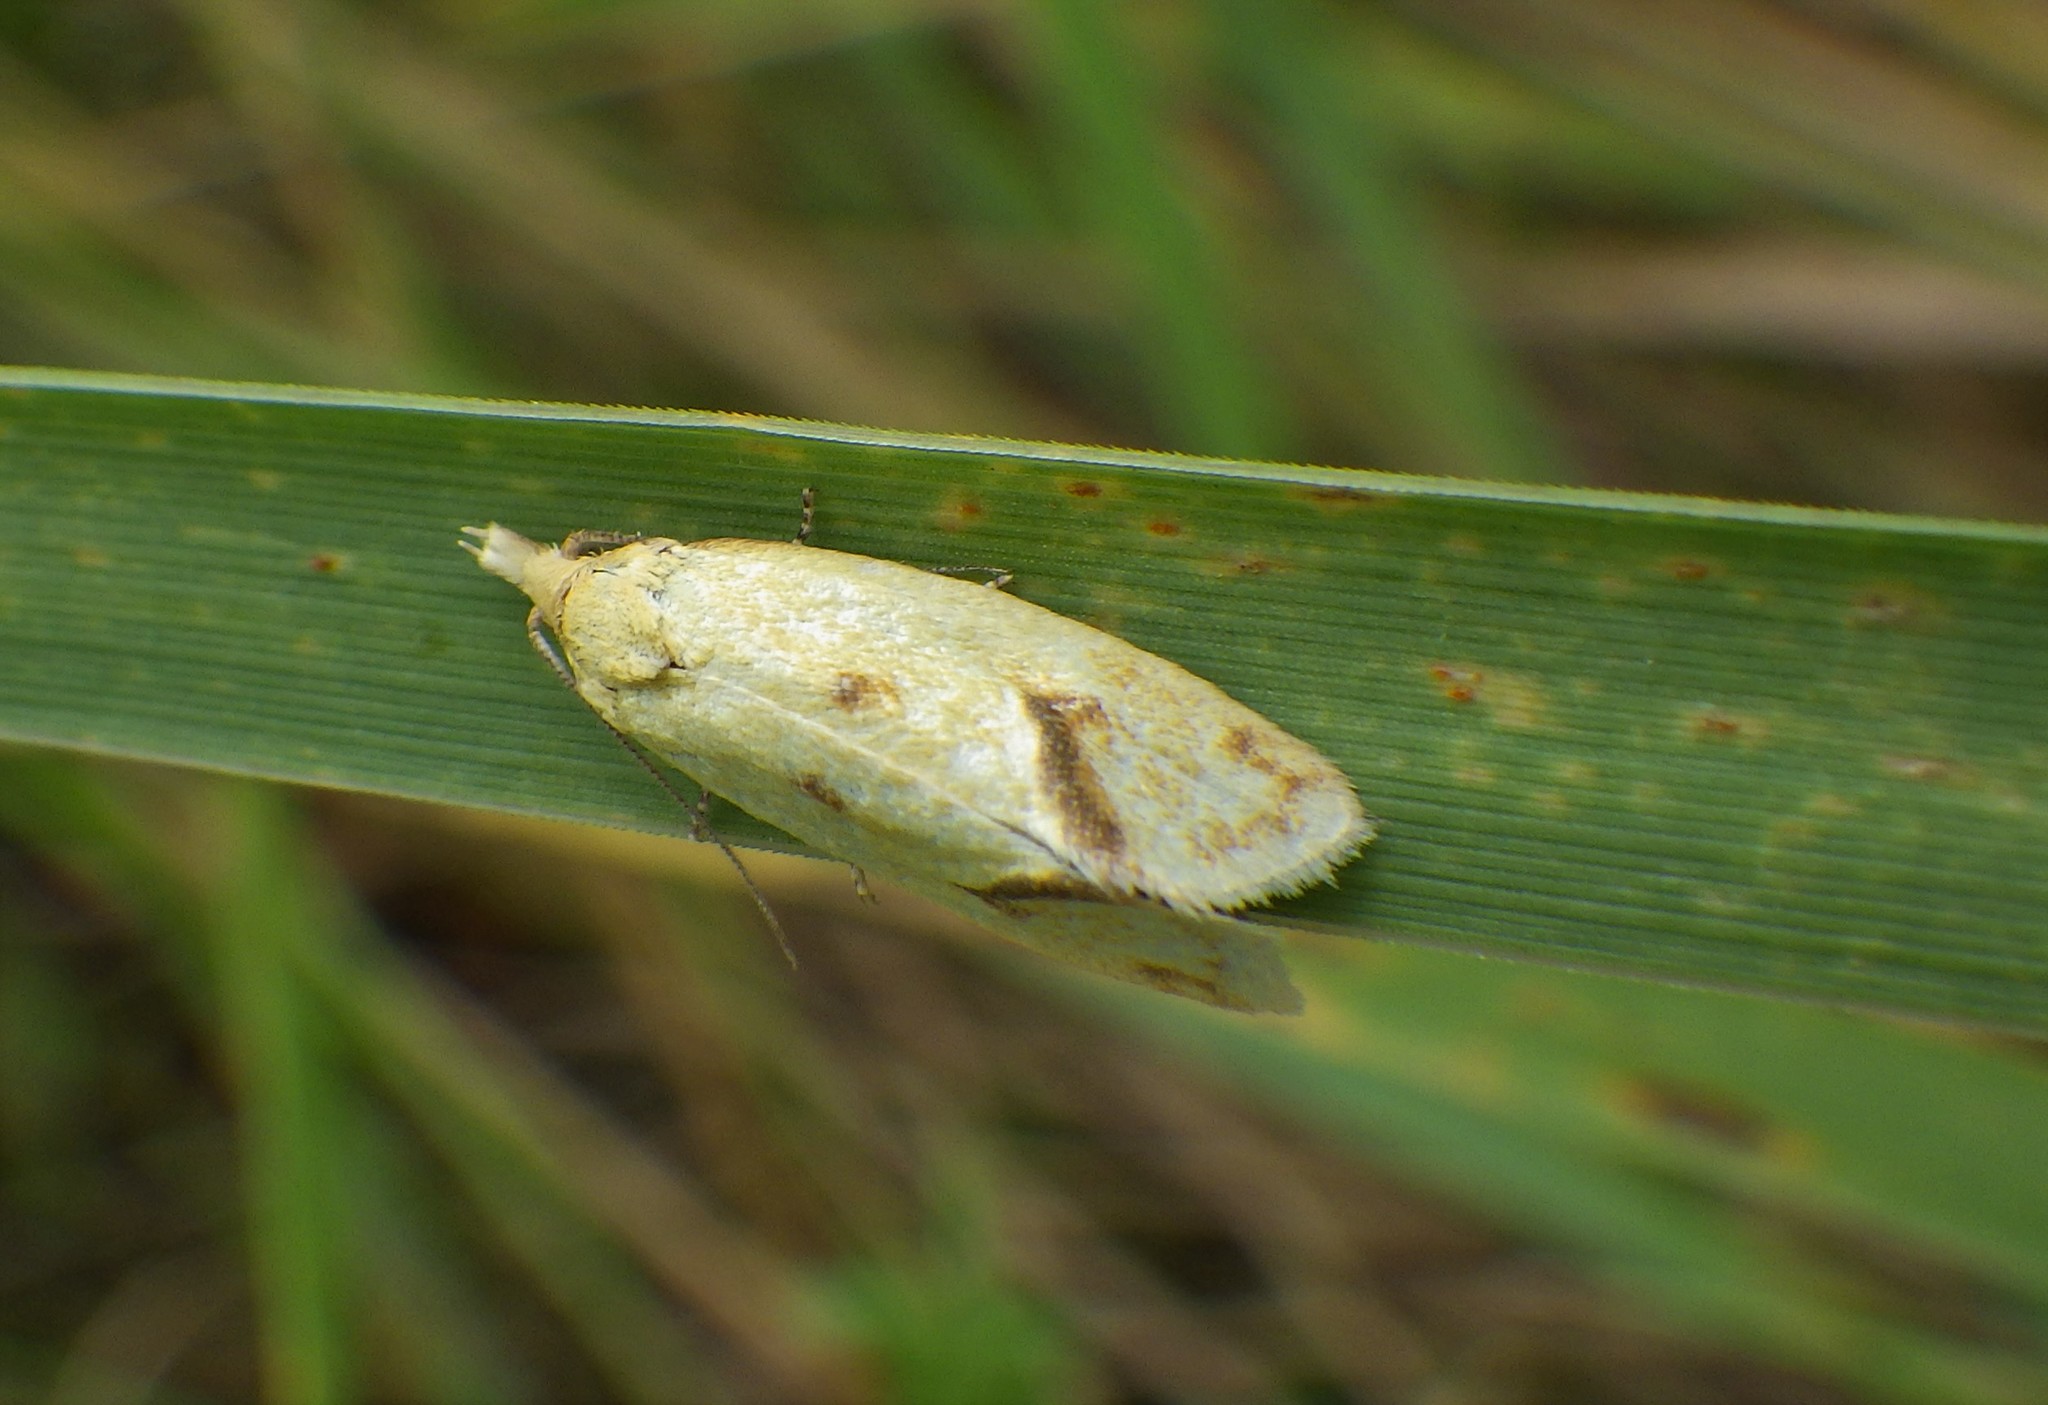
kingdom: Animalia
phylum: Arthropoda
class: Insecta
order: Lepidoptera
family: Tortricidae
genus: Agapeta
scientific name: Agapeta hamana
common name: Common yellow conch
